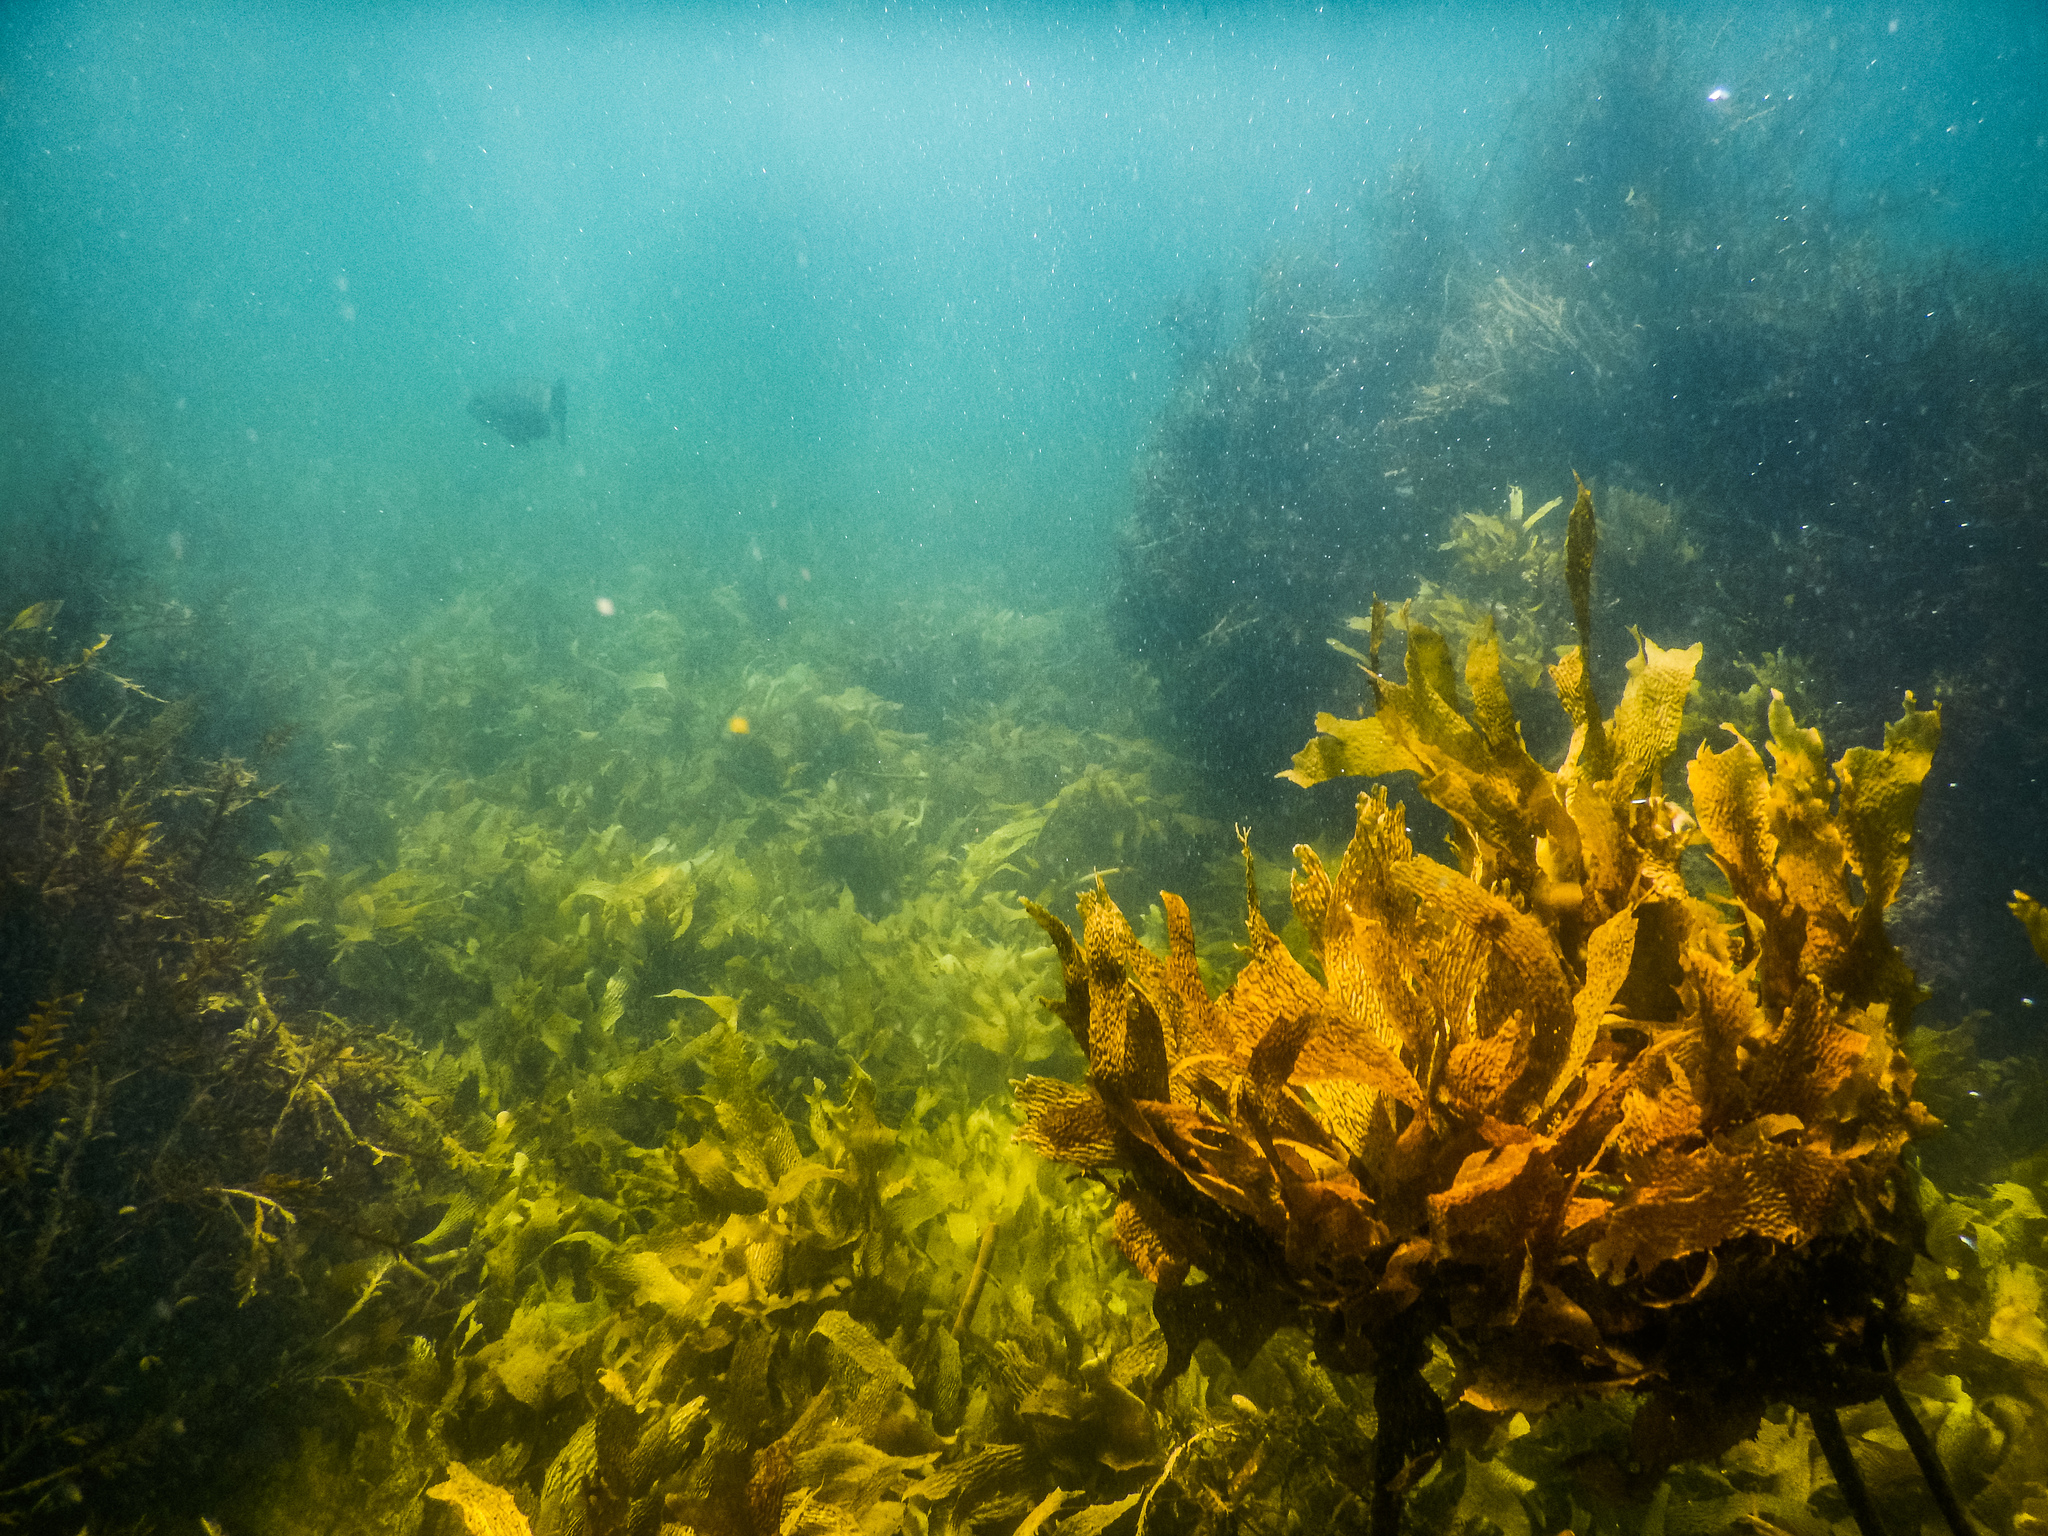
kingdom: Chromista
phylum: Ochrophyta
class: Phaeophyceae
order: Laminariales
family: Lessoniaceae
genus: Ecklonia
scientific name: Ecklonia radiata
